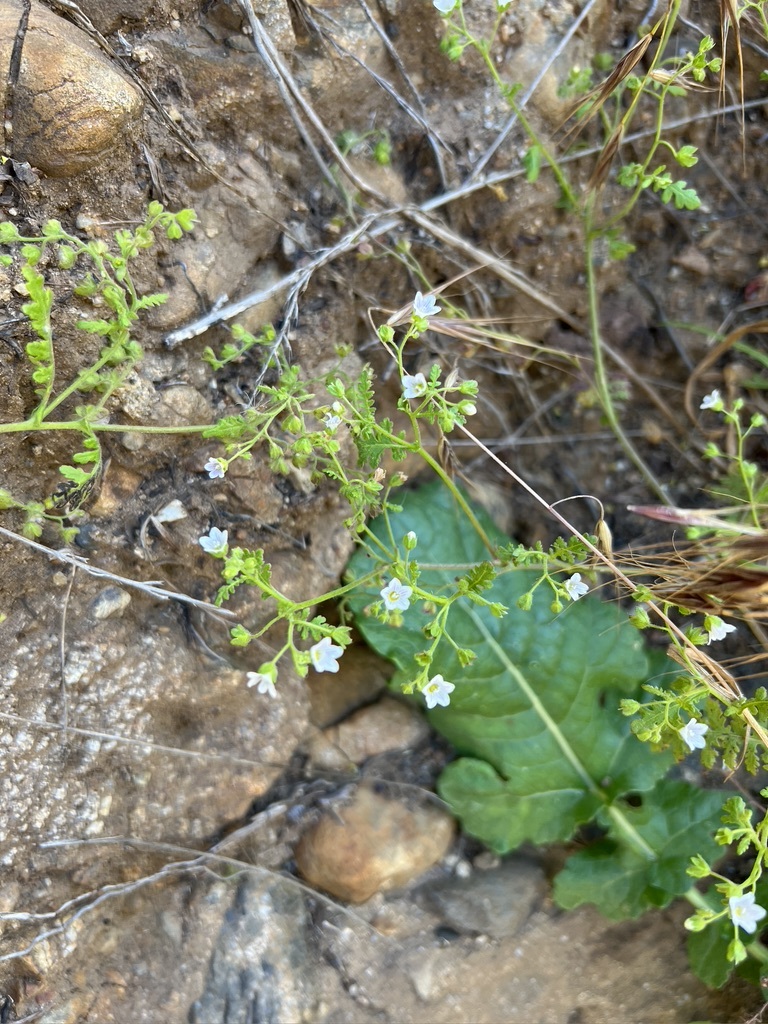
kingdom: Plantae
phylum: Tracheophyta
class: Magnoliopsida
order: Boraginales
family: Hydrophyllaceae
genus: Eucrypta
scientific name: Eucrypta chrysanthemifolia
